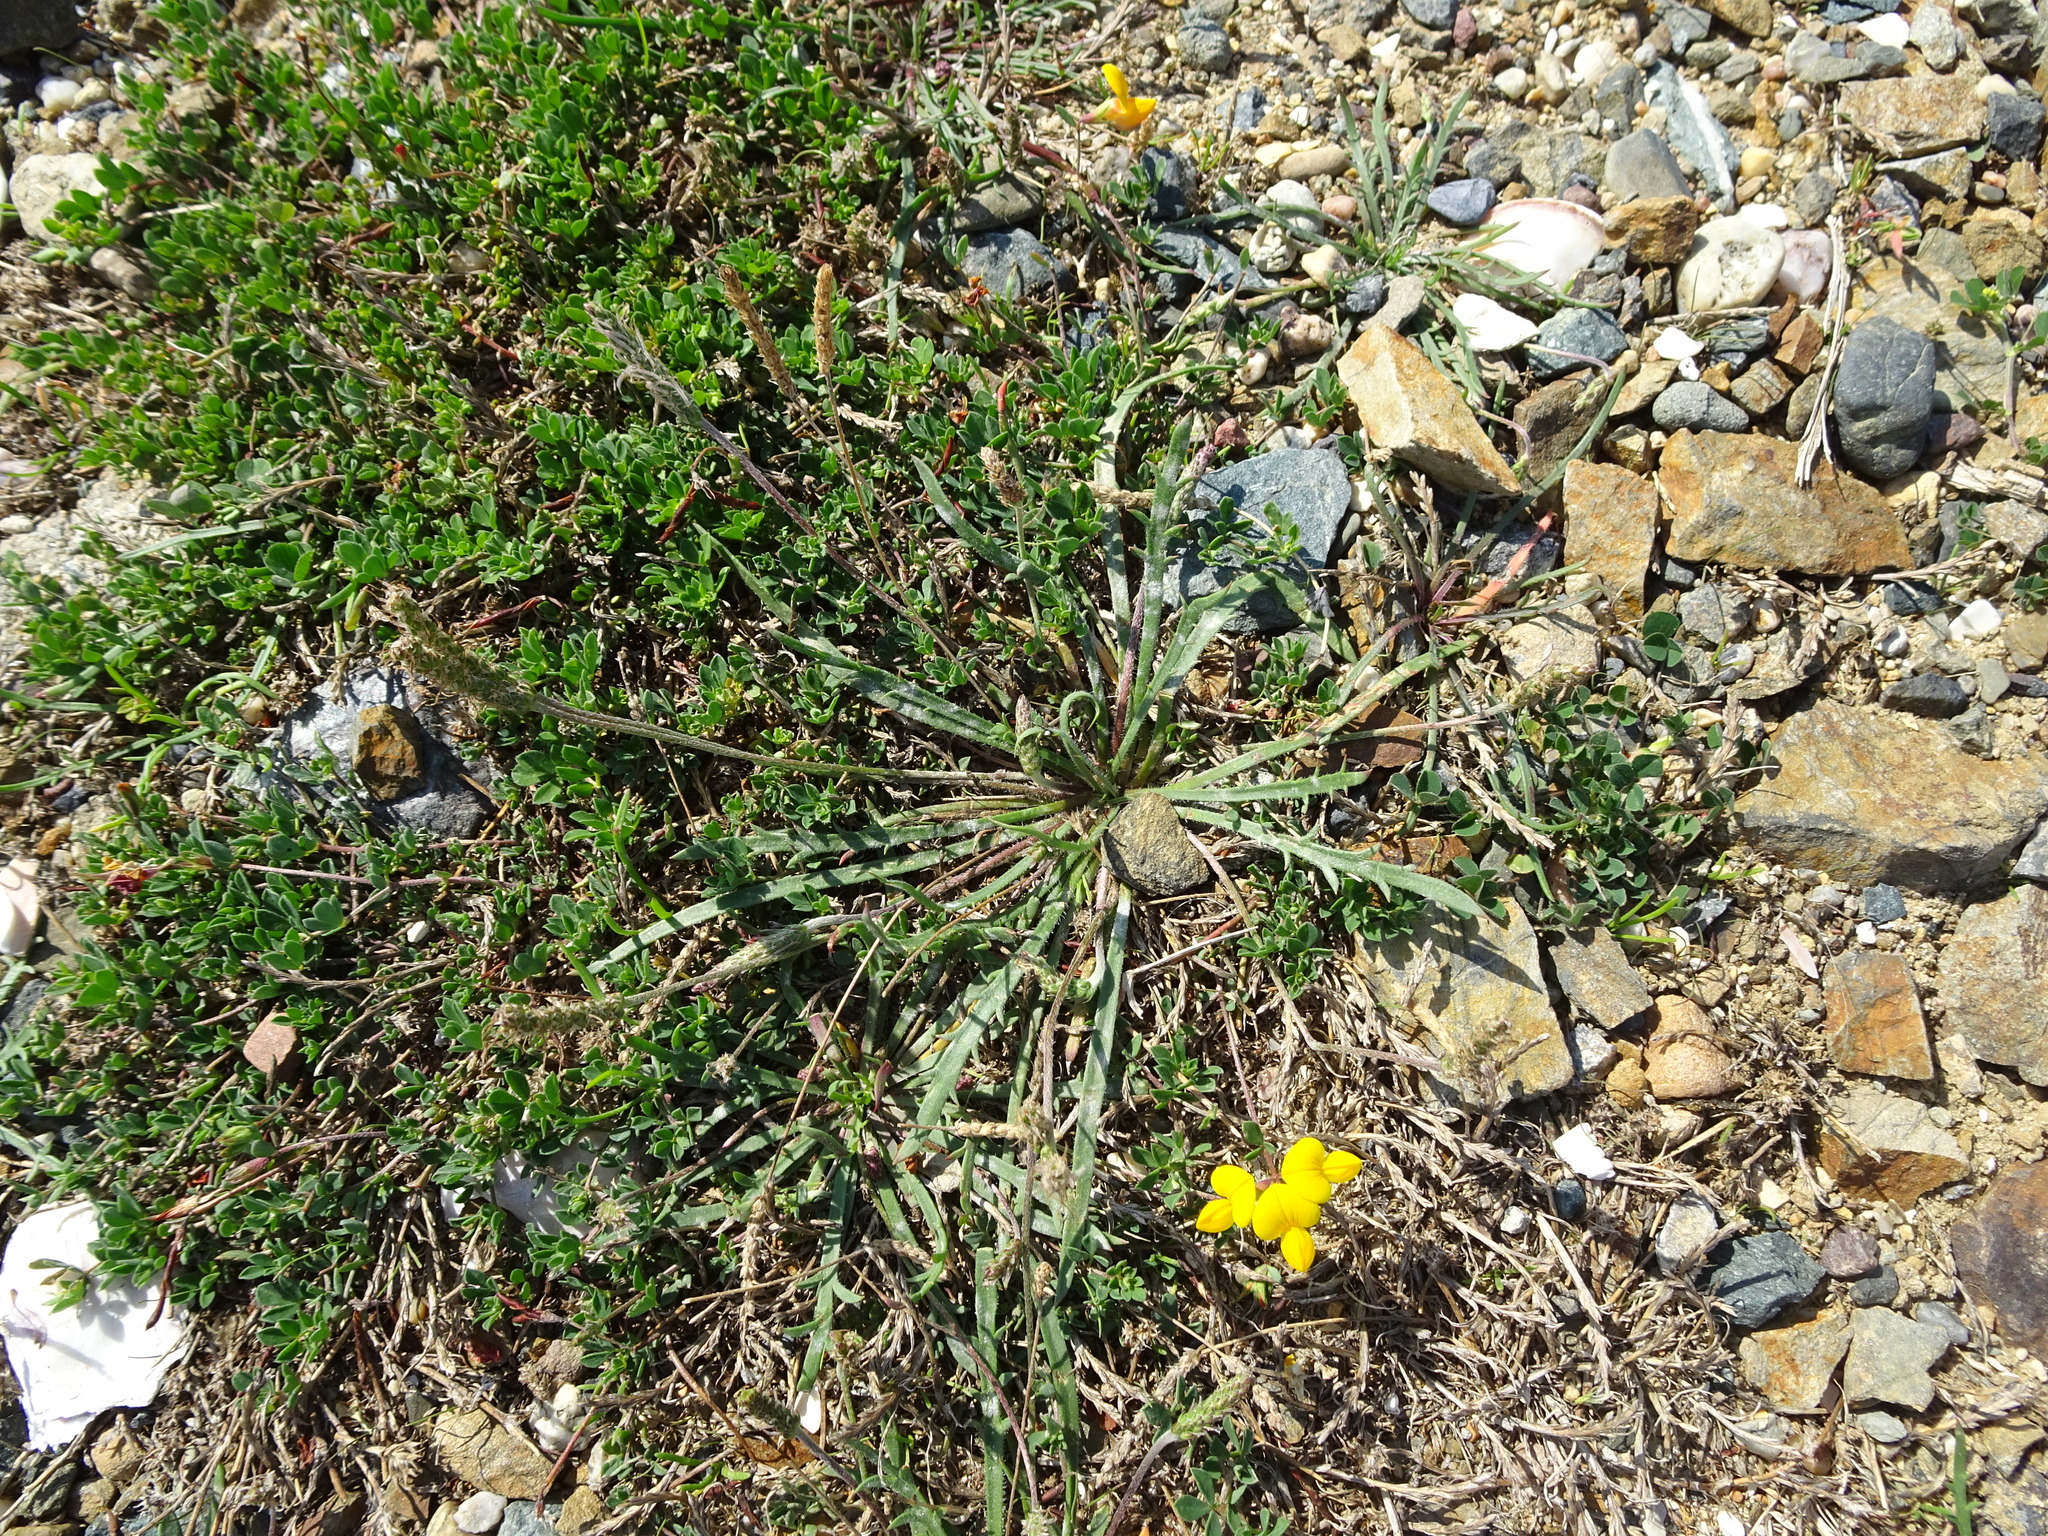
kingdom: Plantae
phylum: Tracheophyta
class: Magnoliopsida
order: Lamiales
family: Plantaginaceae
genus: Plantago
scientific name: Plantago coronopus
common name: Buck's-horn plantain
